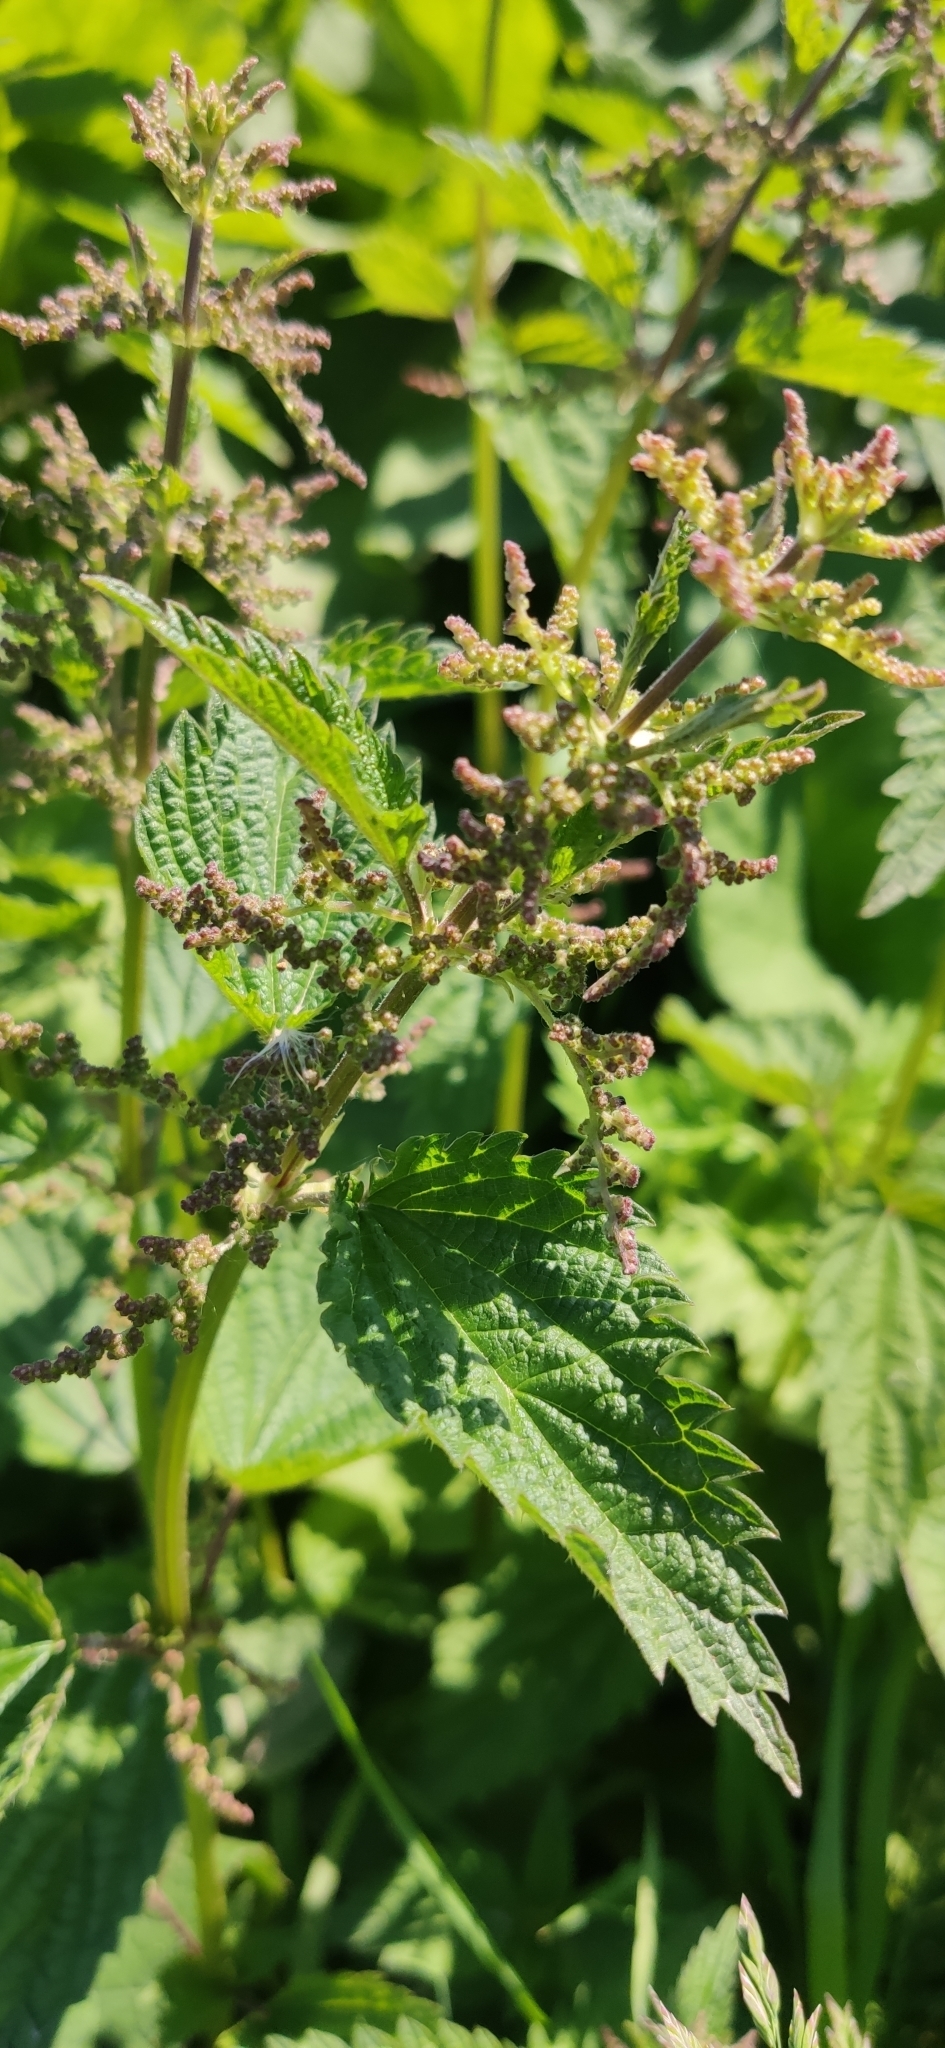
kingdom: Plantae
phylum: Tracheophyta
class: Magnoliopsida
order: Rosales
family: Urticaceae
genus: Urtica
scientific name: Urtica dioica
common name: Common nettle
